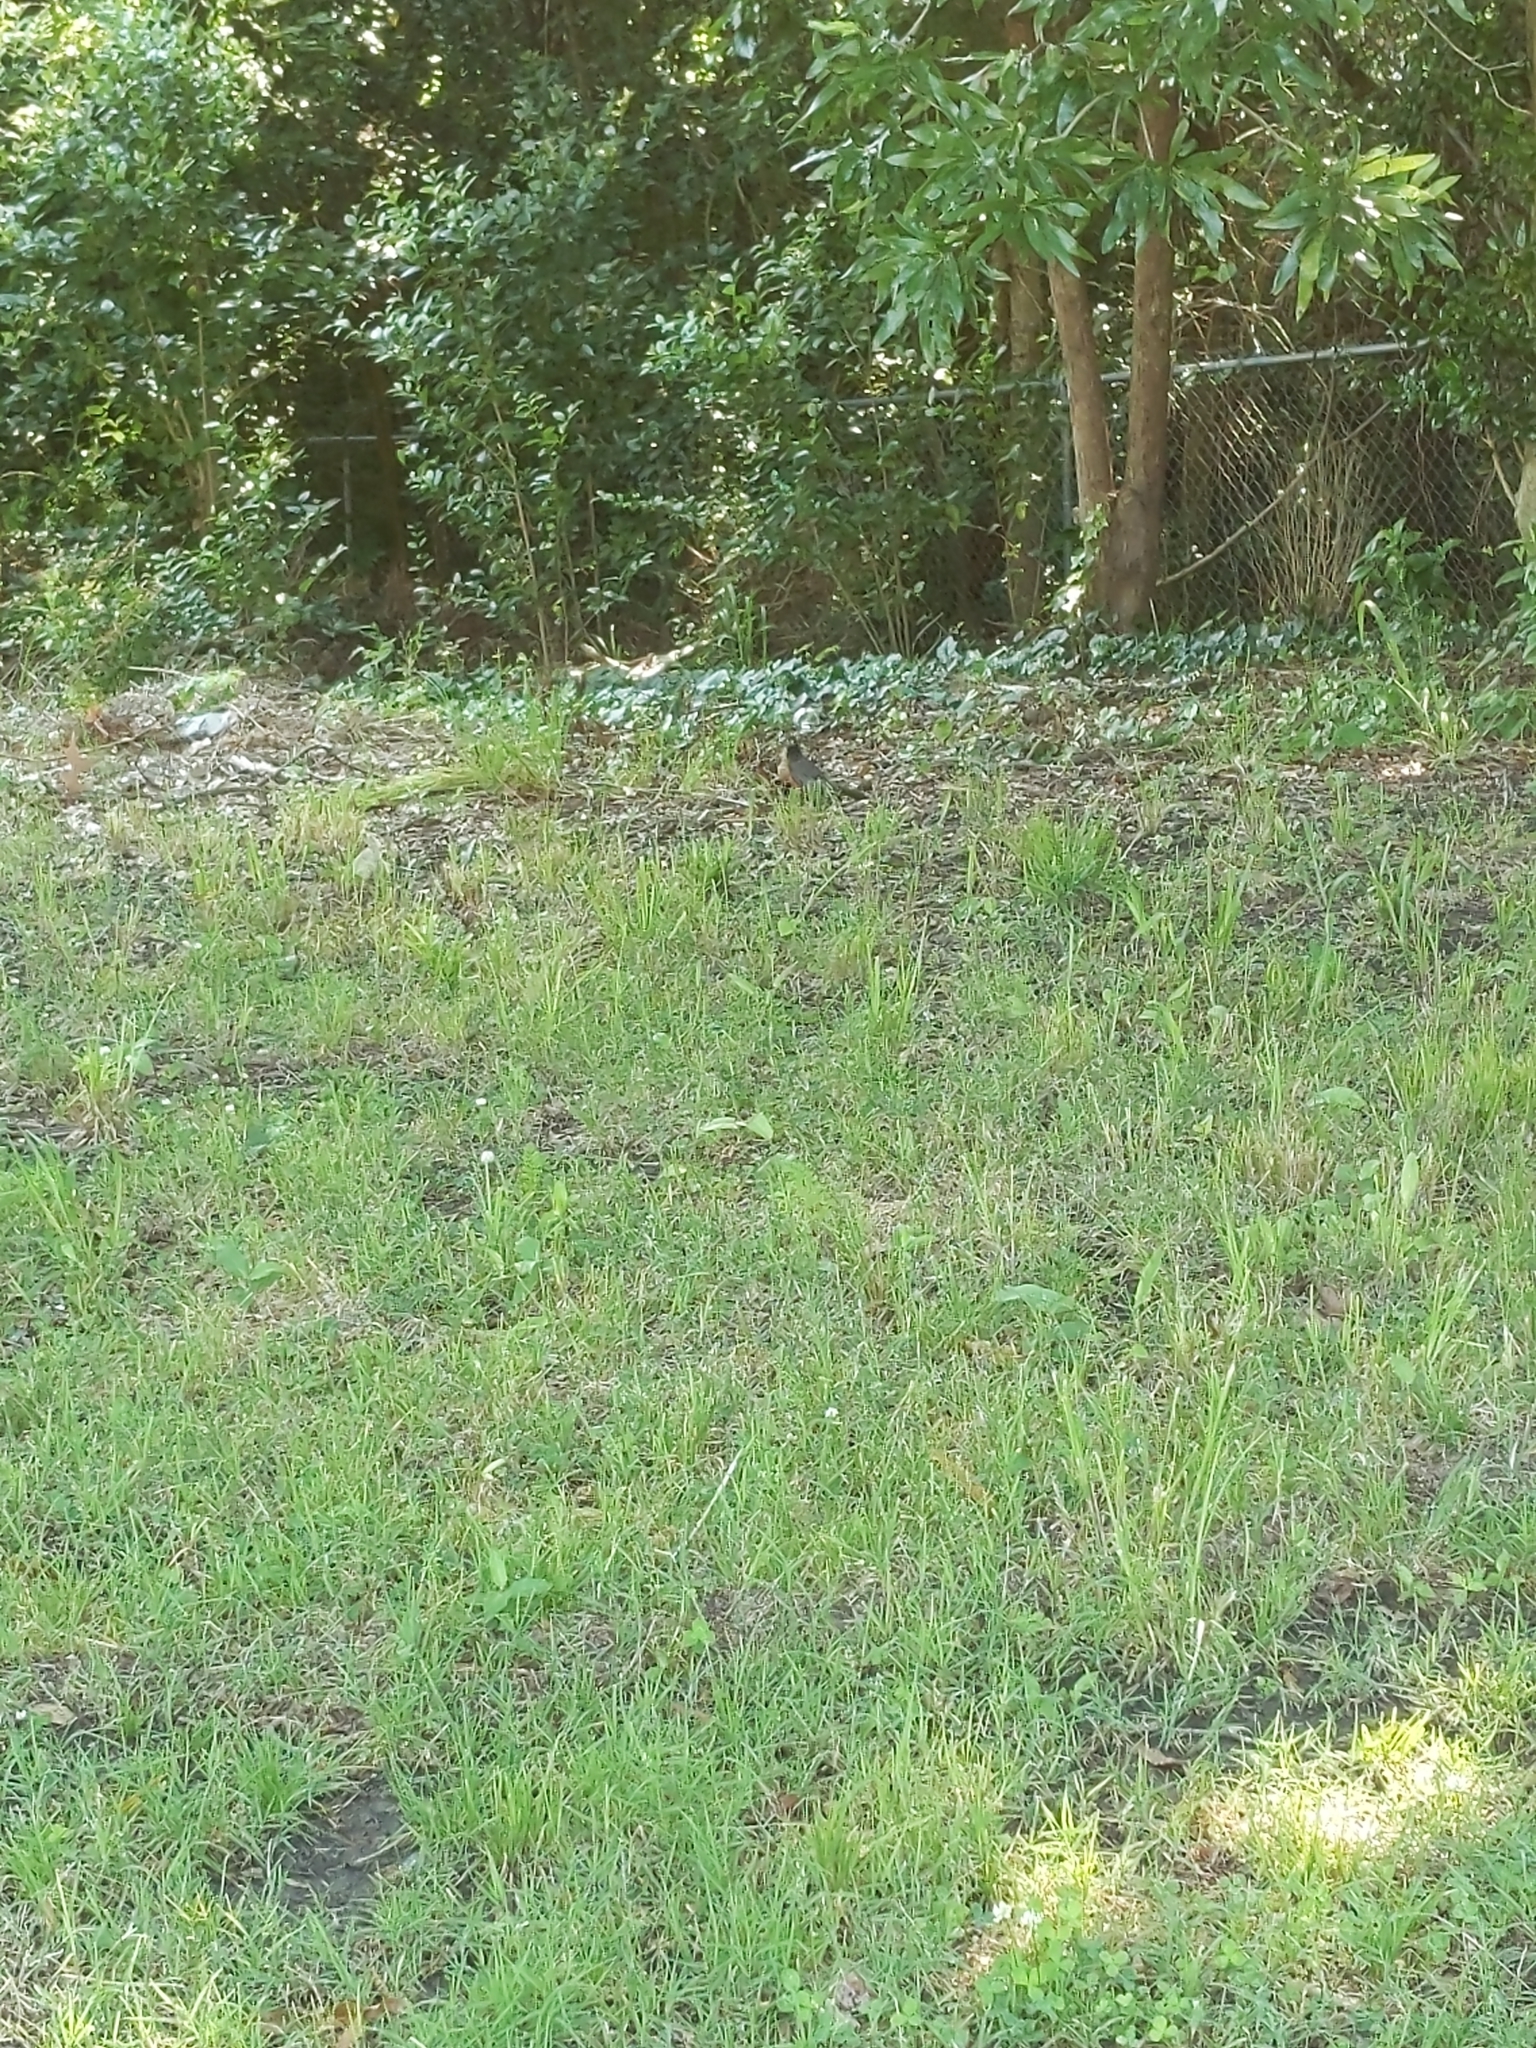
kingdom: Animalia
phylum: Chordata
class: Aves
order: Passeriformes
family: Turdidae
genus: Turdus
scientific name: Turdus migratorius
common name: American robin
